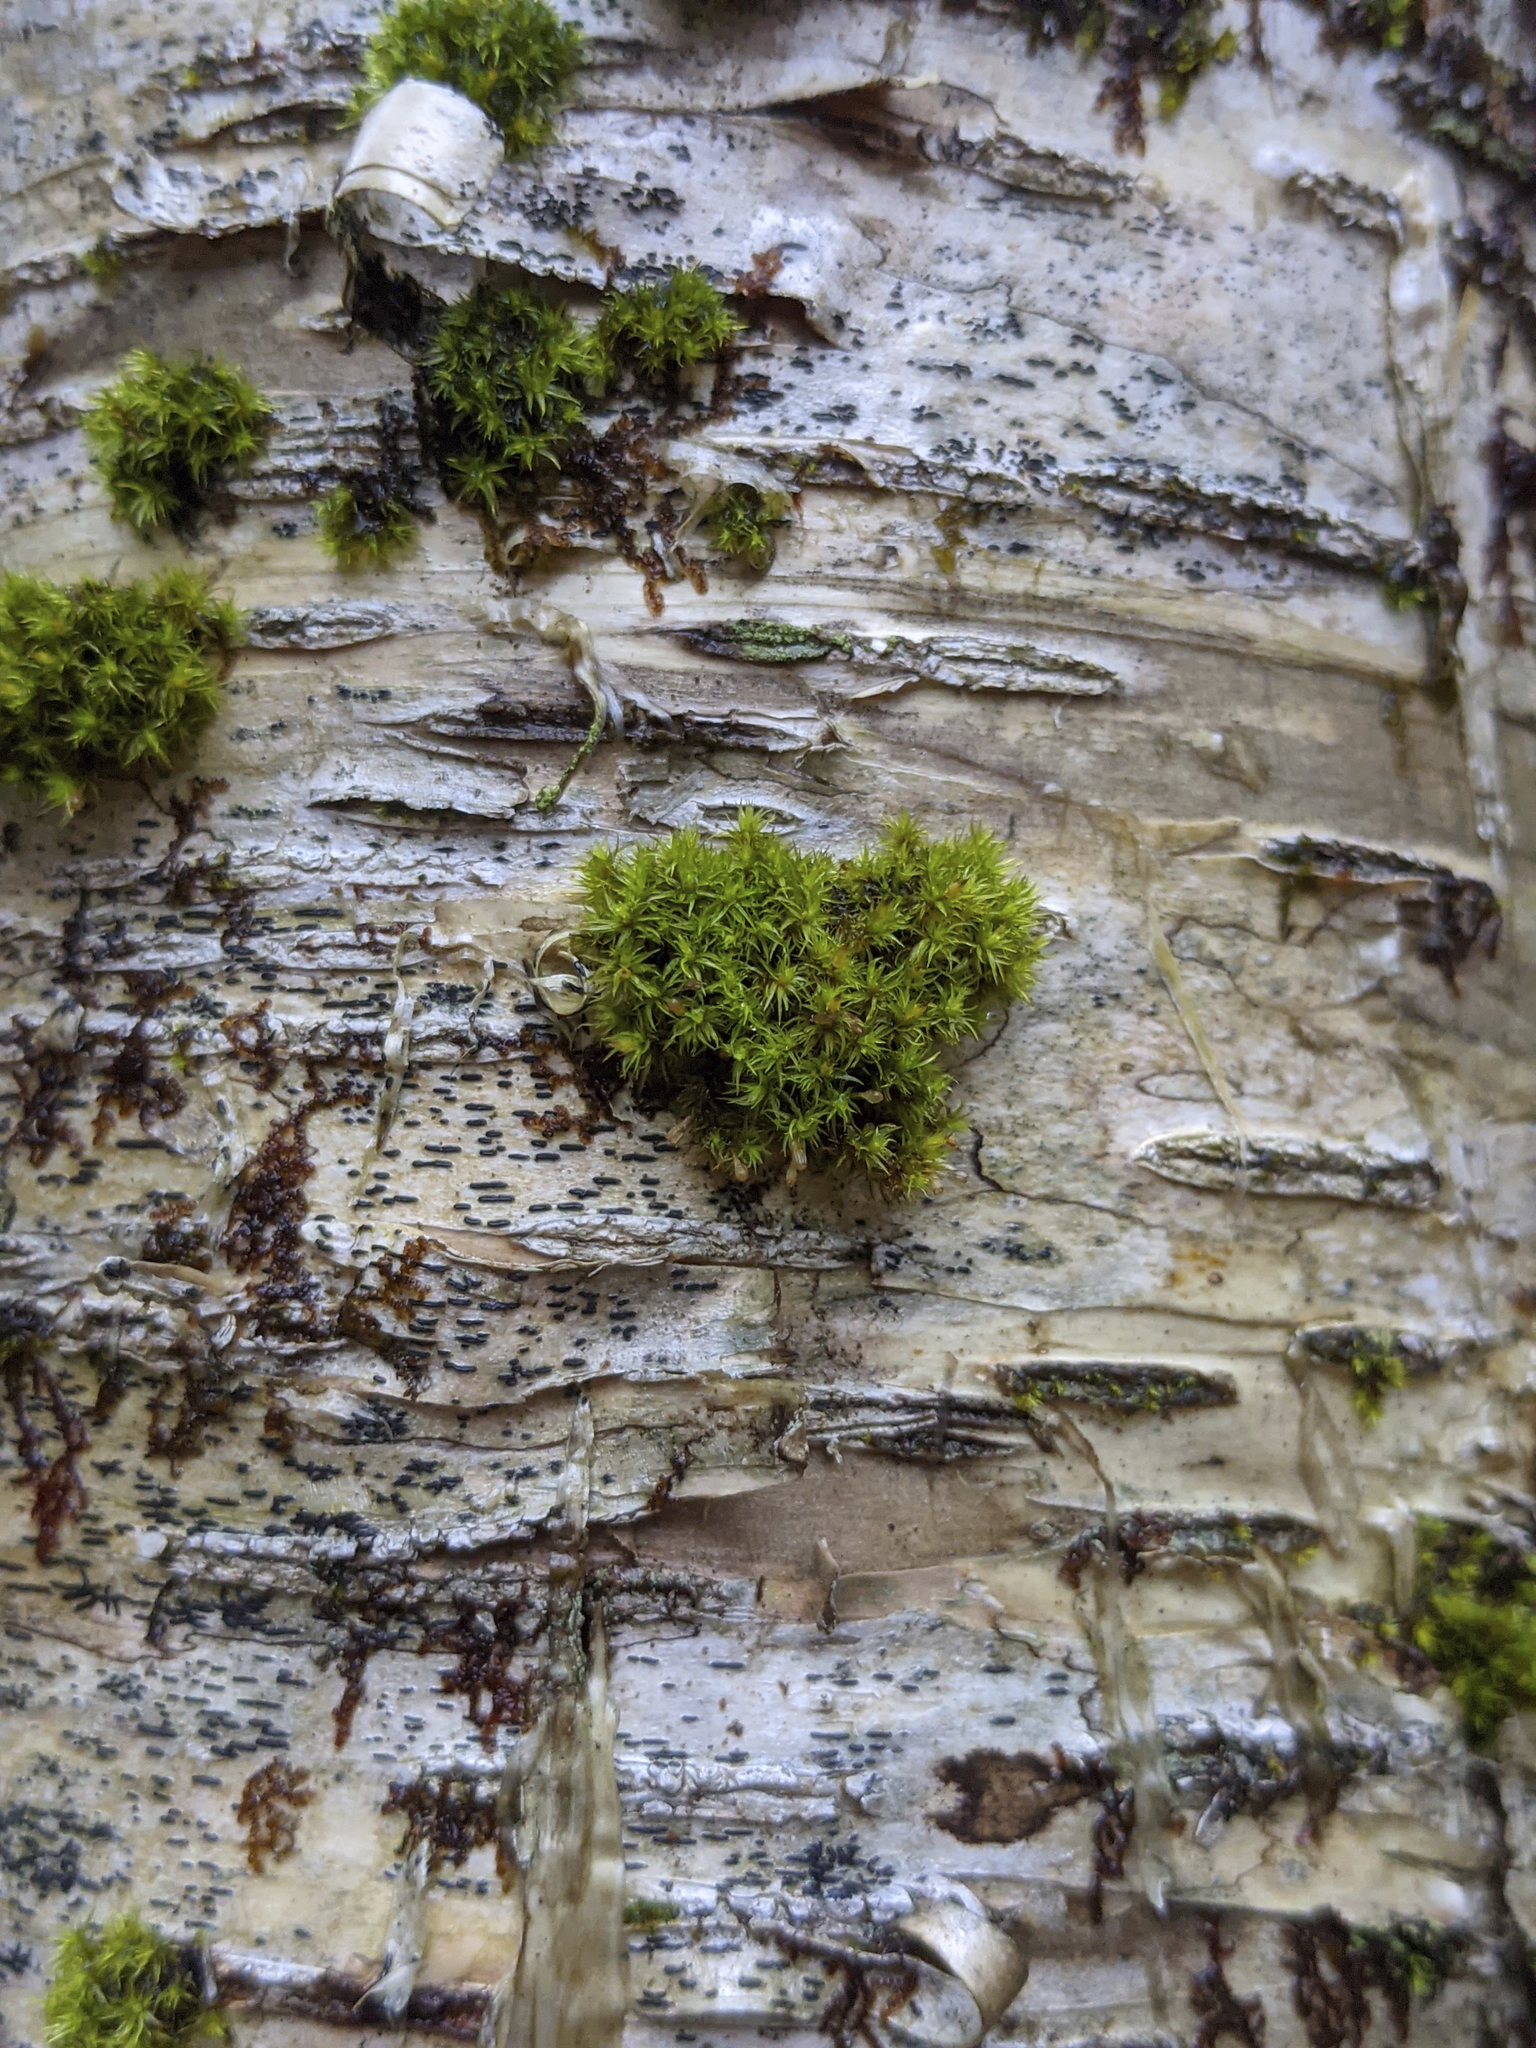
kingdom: Plantae
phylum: Bryophyta
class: Bryopsida
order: Orthotrichales
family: Orthotrichaceae
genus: Ulota
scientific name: Ulota crispa
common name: Crisped pincushion moss
